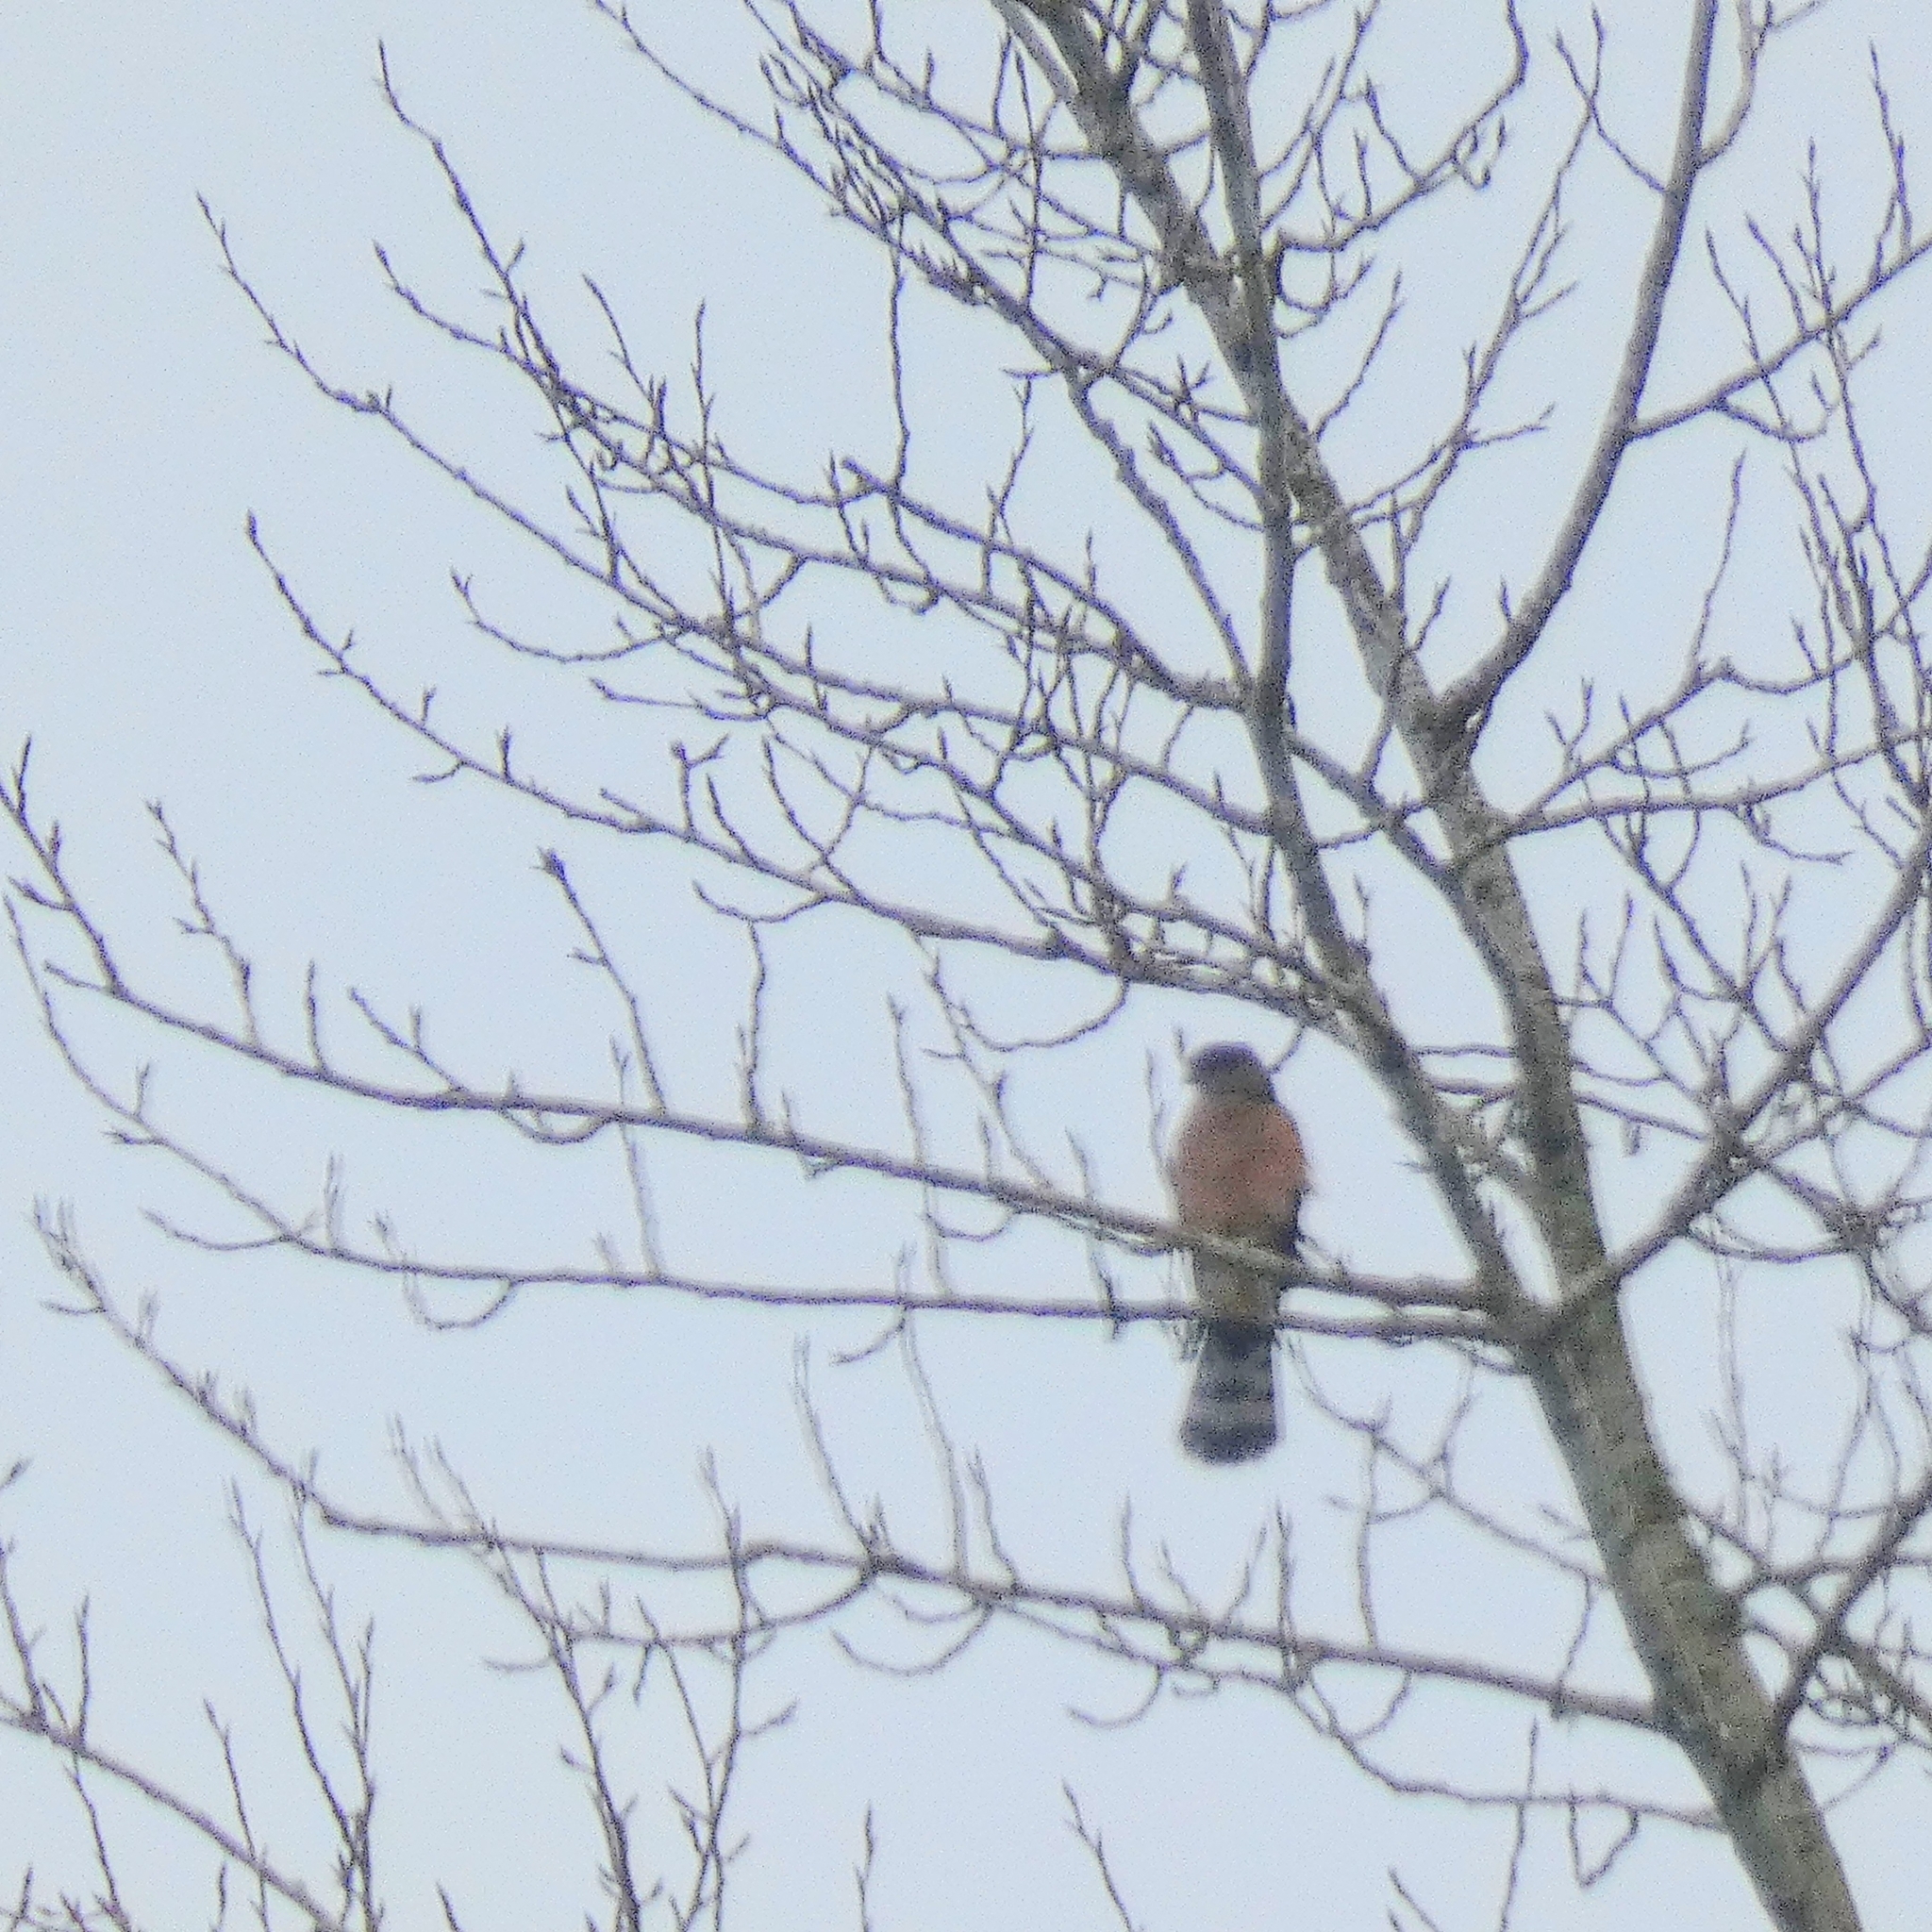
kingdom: Animalia
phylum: Chordata
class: Aves
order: Accipitriformes
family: Accipitridae
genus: Accipiter
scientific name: Accipiter cooperii
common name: Cooper's hawk
